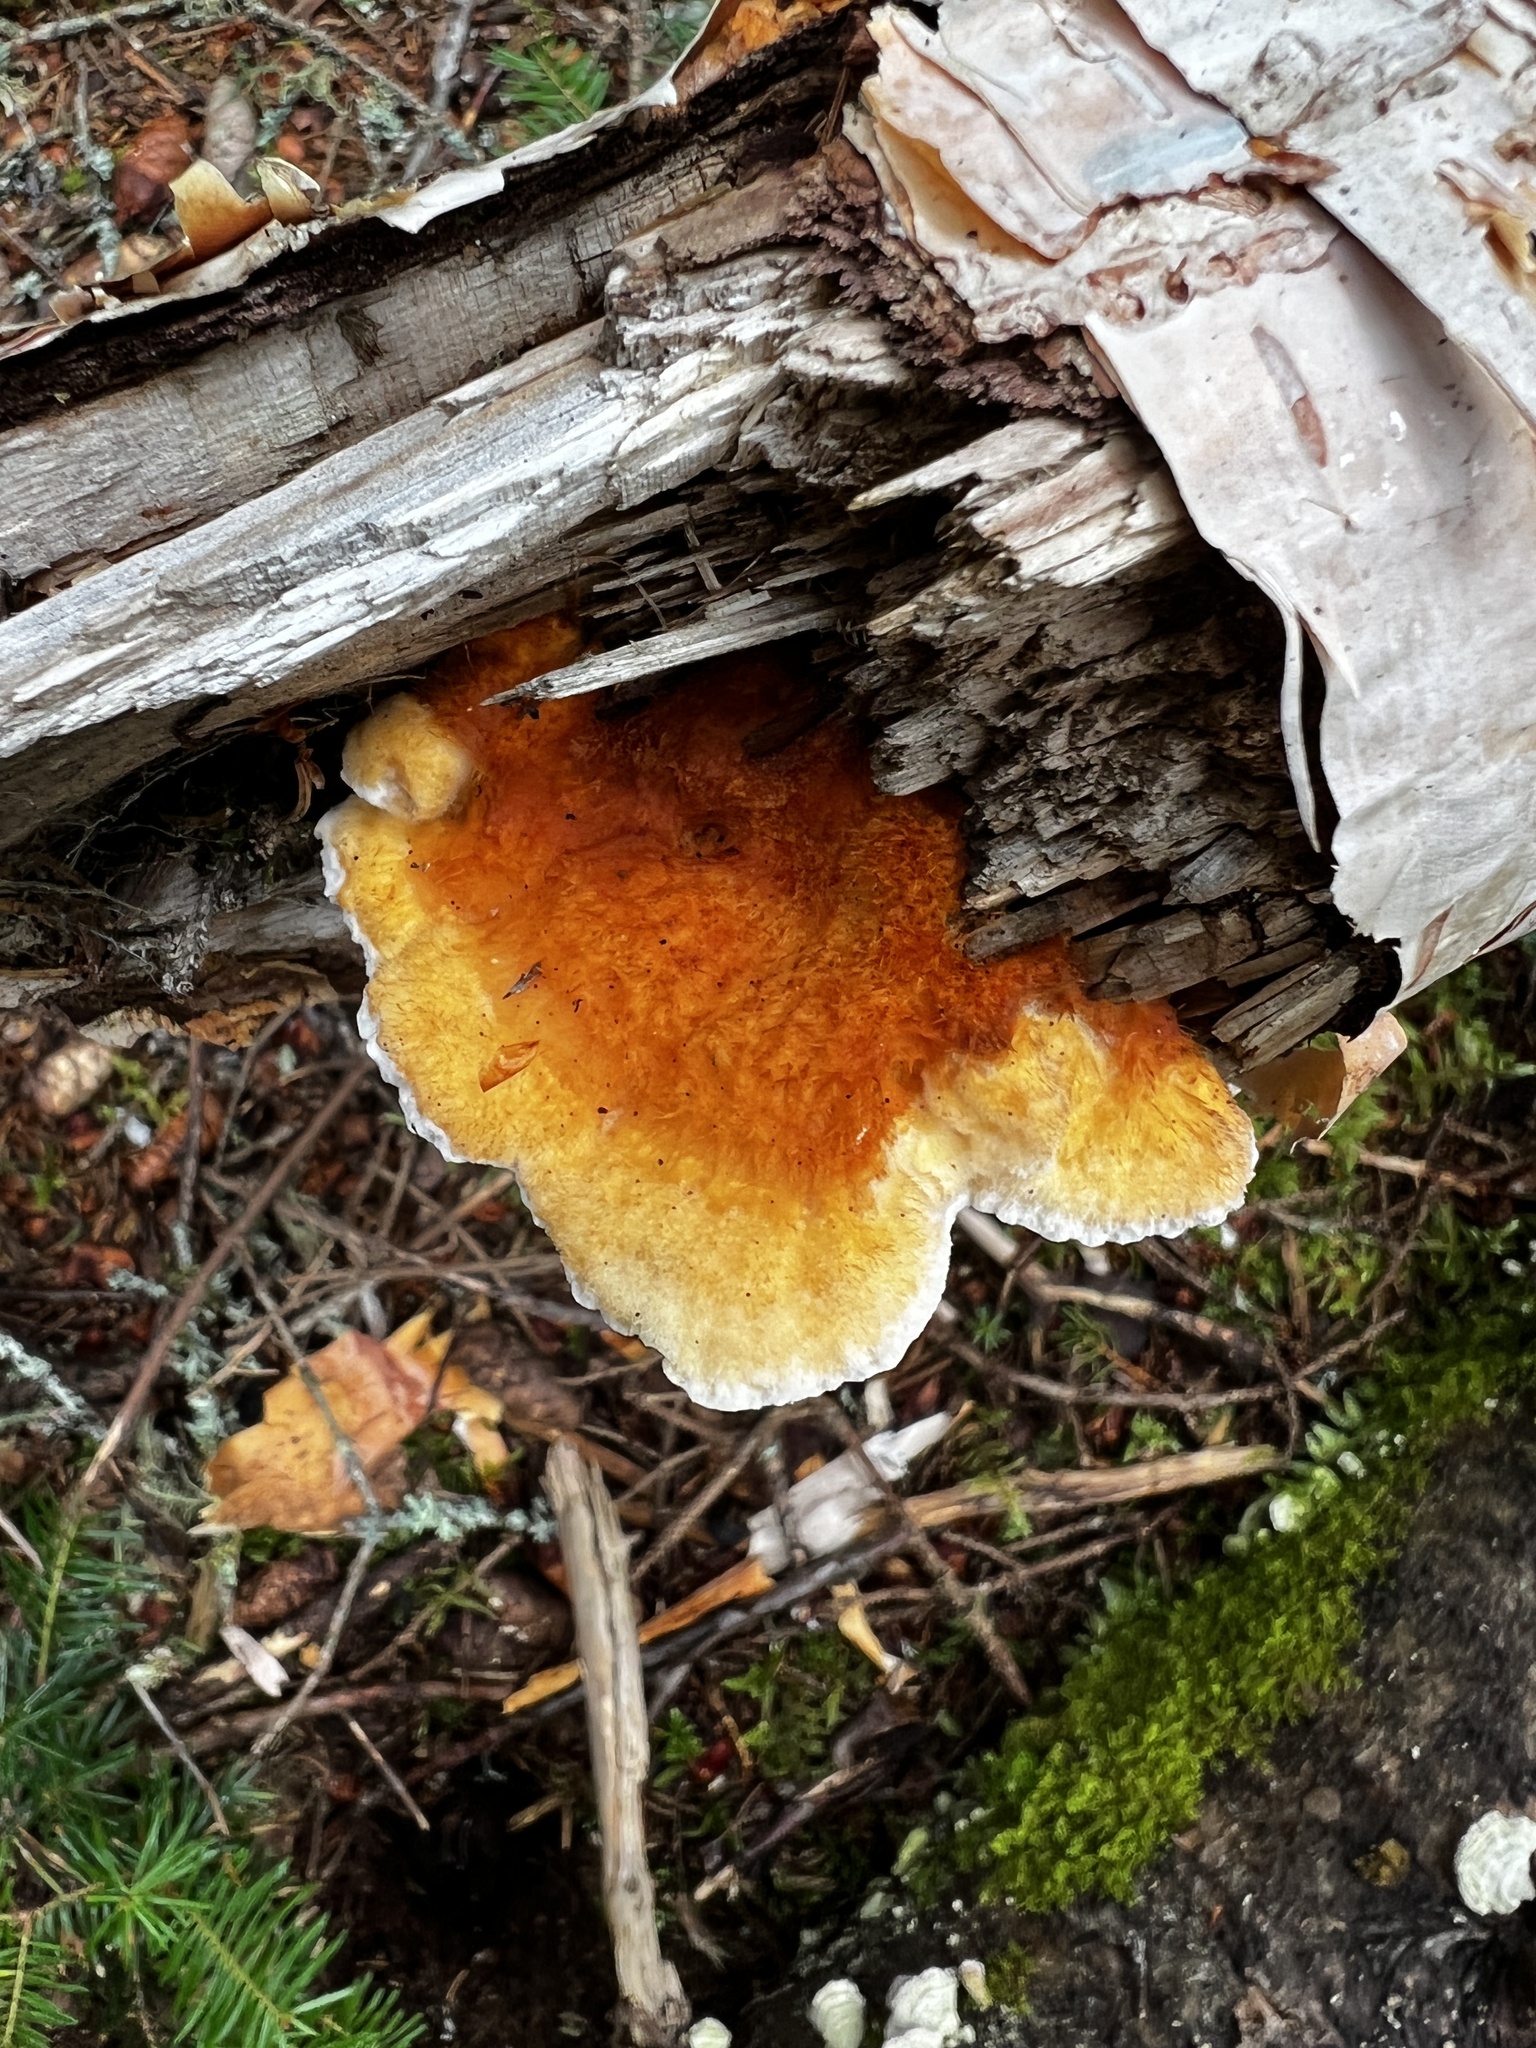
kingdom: Fungi
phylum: Basidiomycota
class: Agaricomycetes
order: Polyporales
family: Pycnoporellaceae
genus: Pycnoporellus
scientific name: Pycnoporellus fulgens
